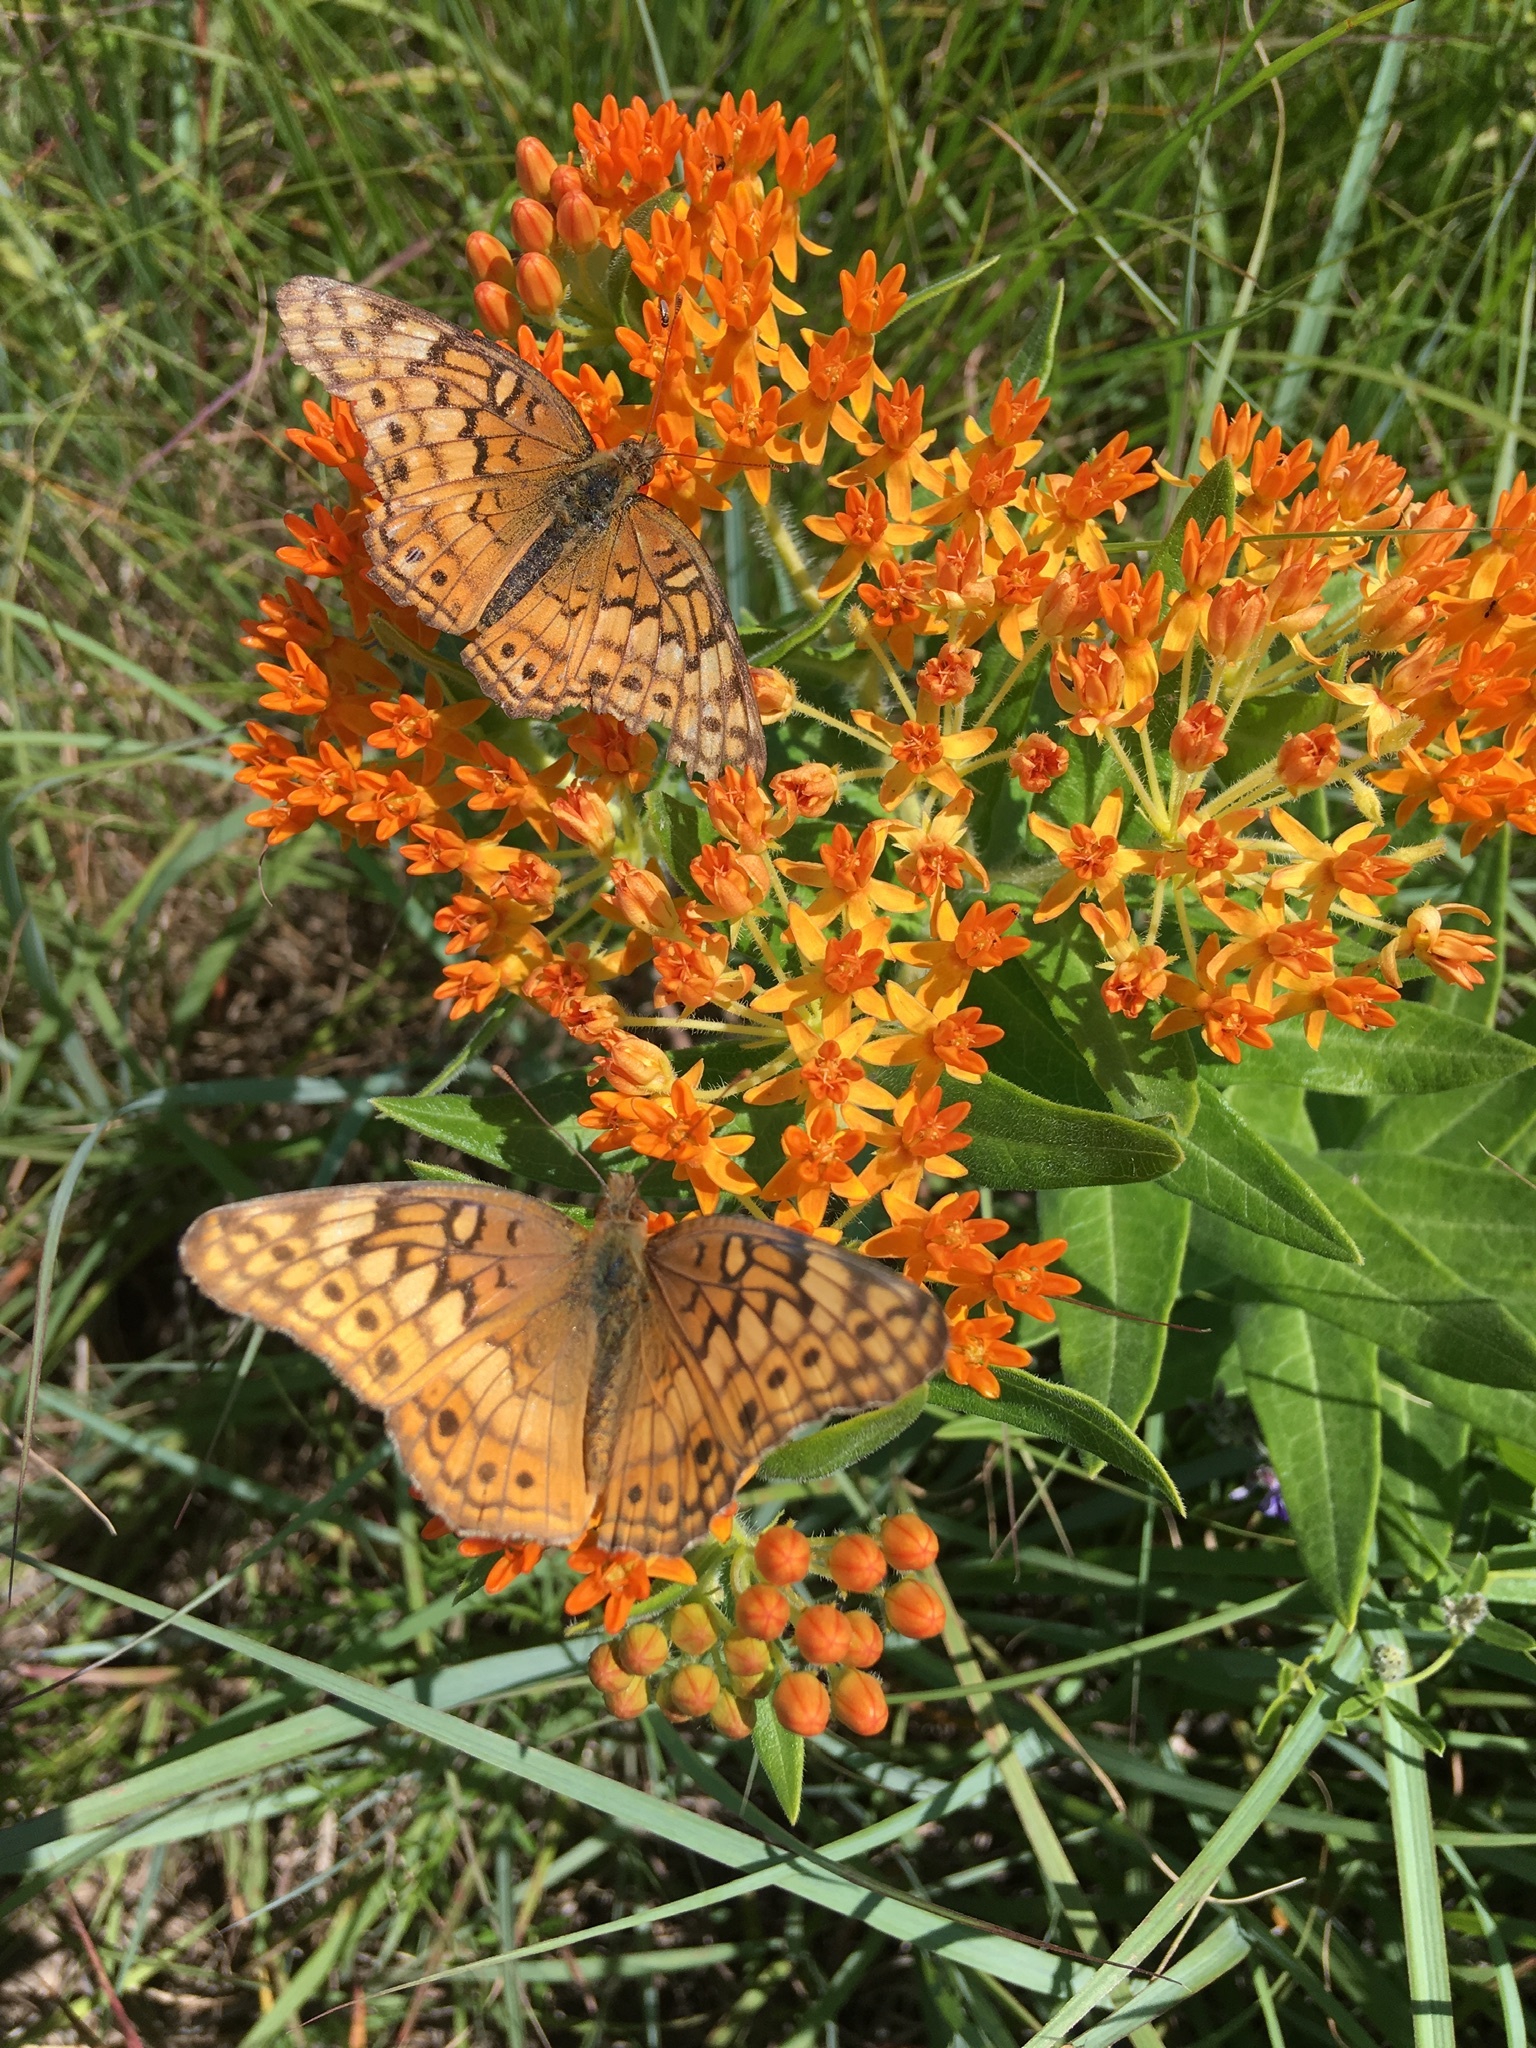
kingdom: Animalia
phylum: Arthropoda
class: Insecta
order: Lepidoptera
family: Nymphalidae
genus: Euptoieta
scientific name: Euptoieta claudia
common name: Variegated fritillary
